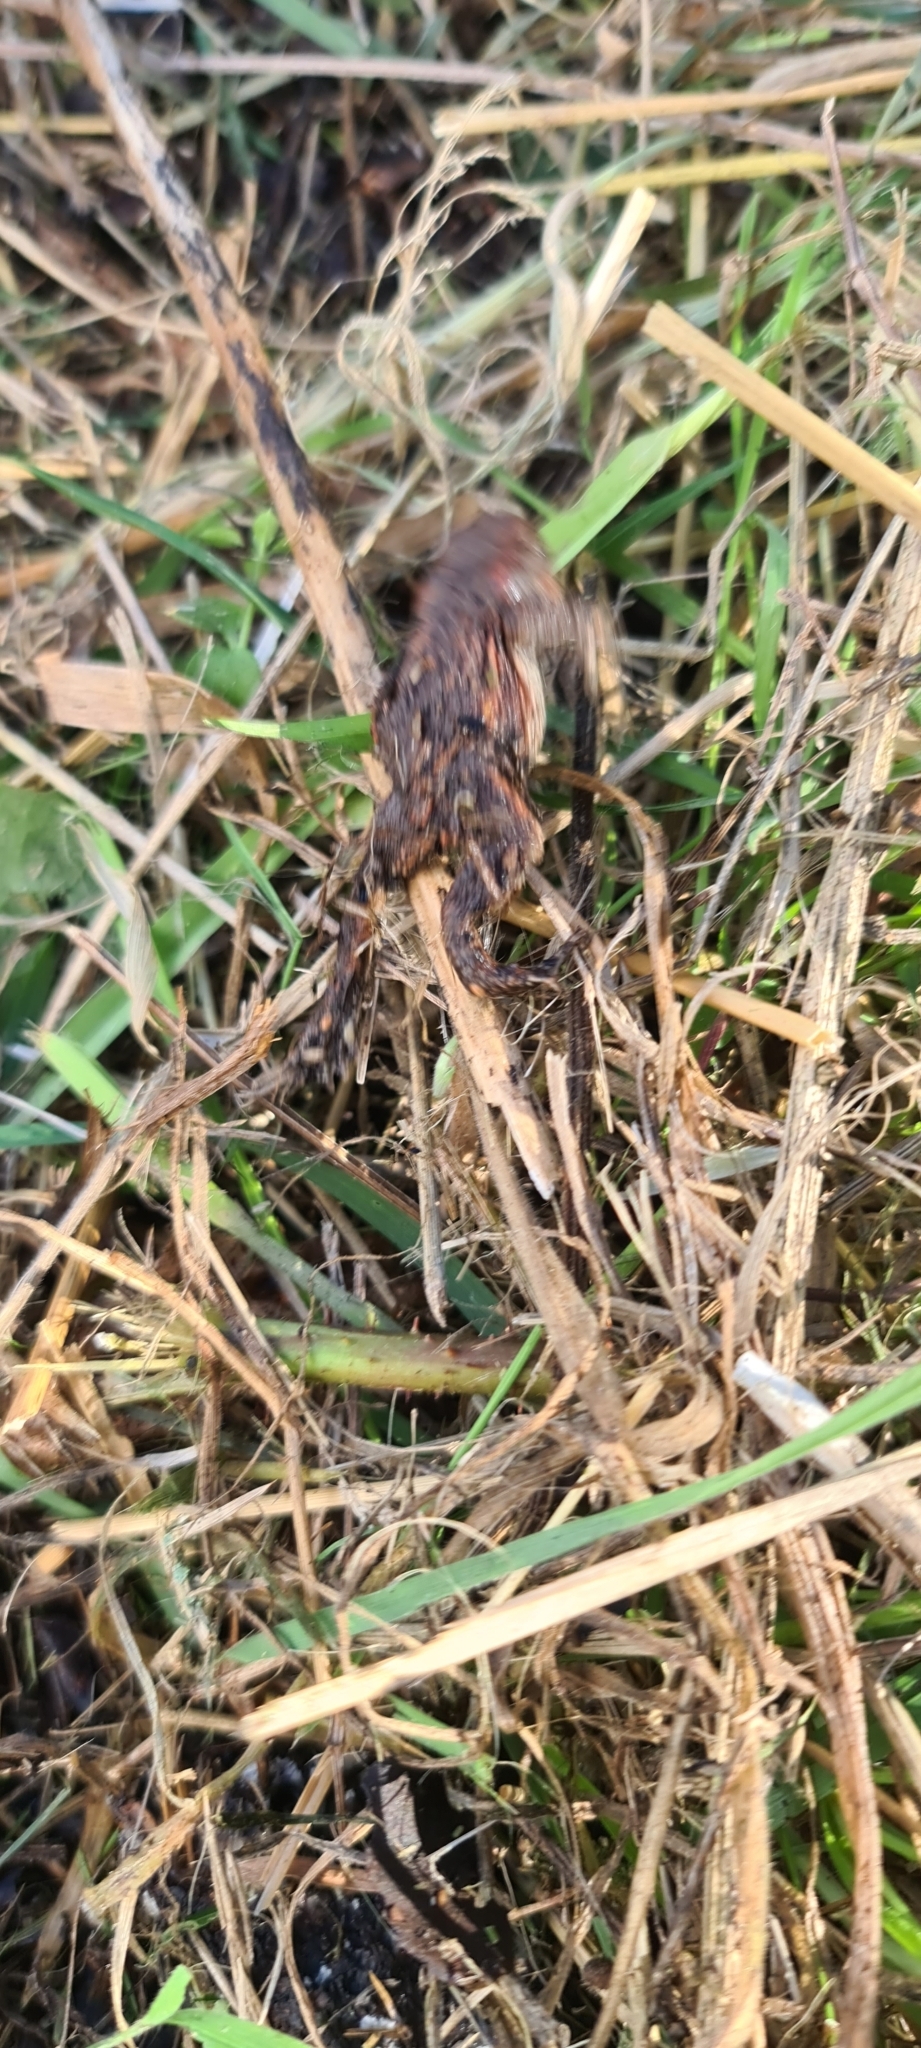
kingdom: Animalia
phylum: Chordata
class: Amphibia
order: Anura
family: Bufonidae
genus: Bufo
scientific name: Bufo bufo
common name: Common toad
